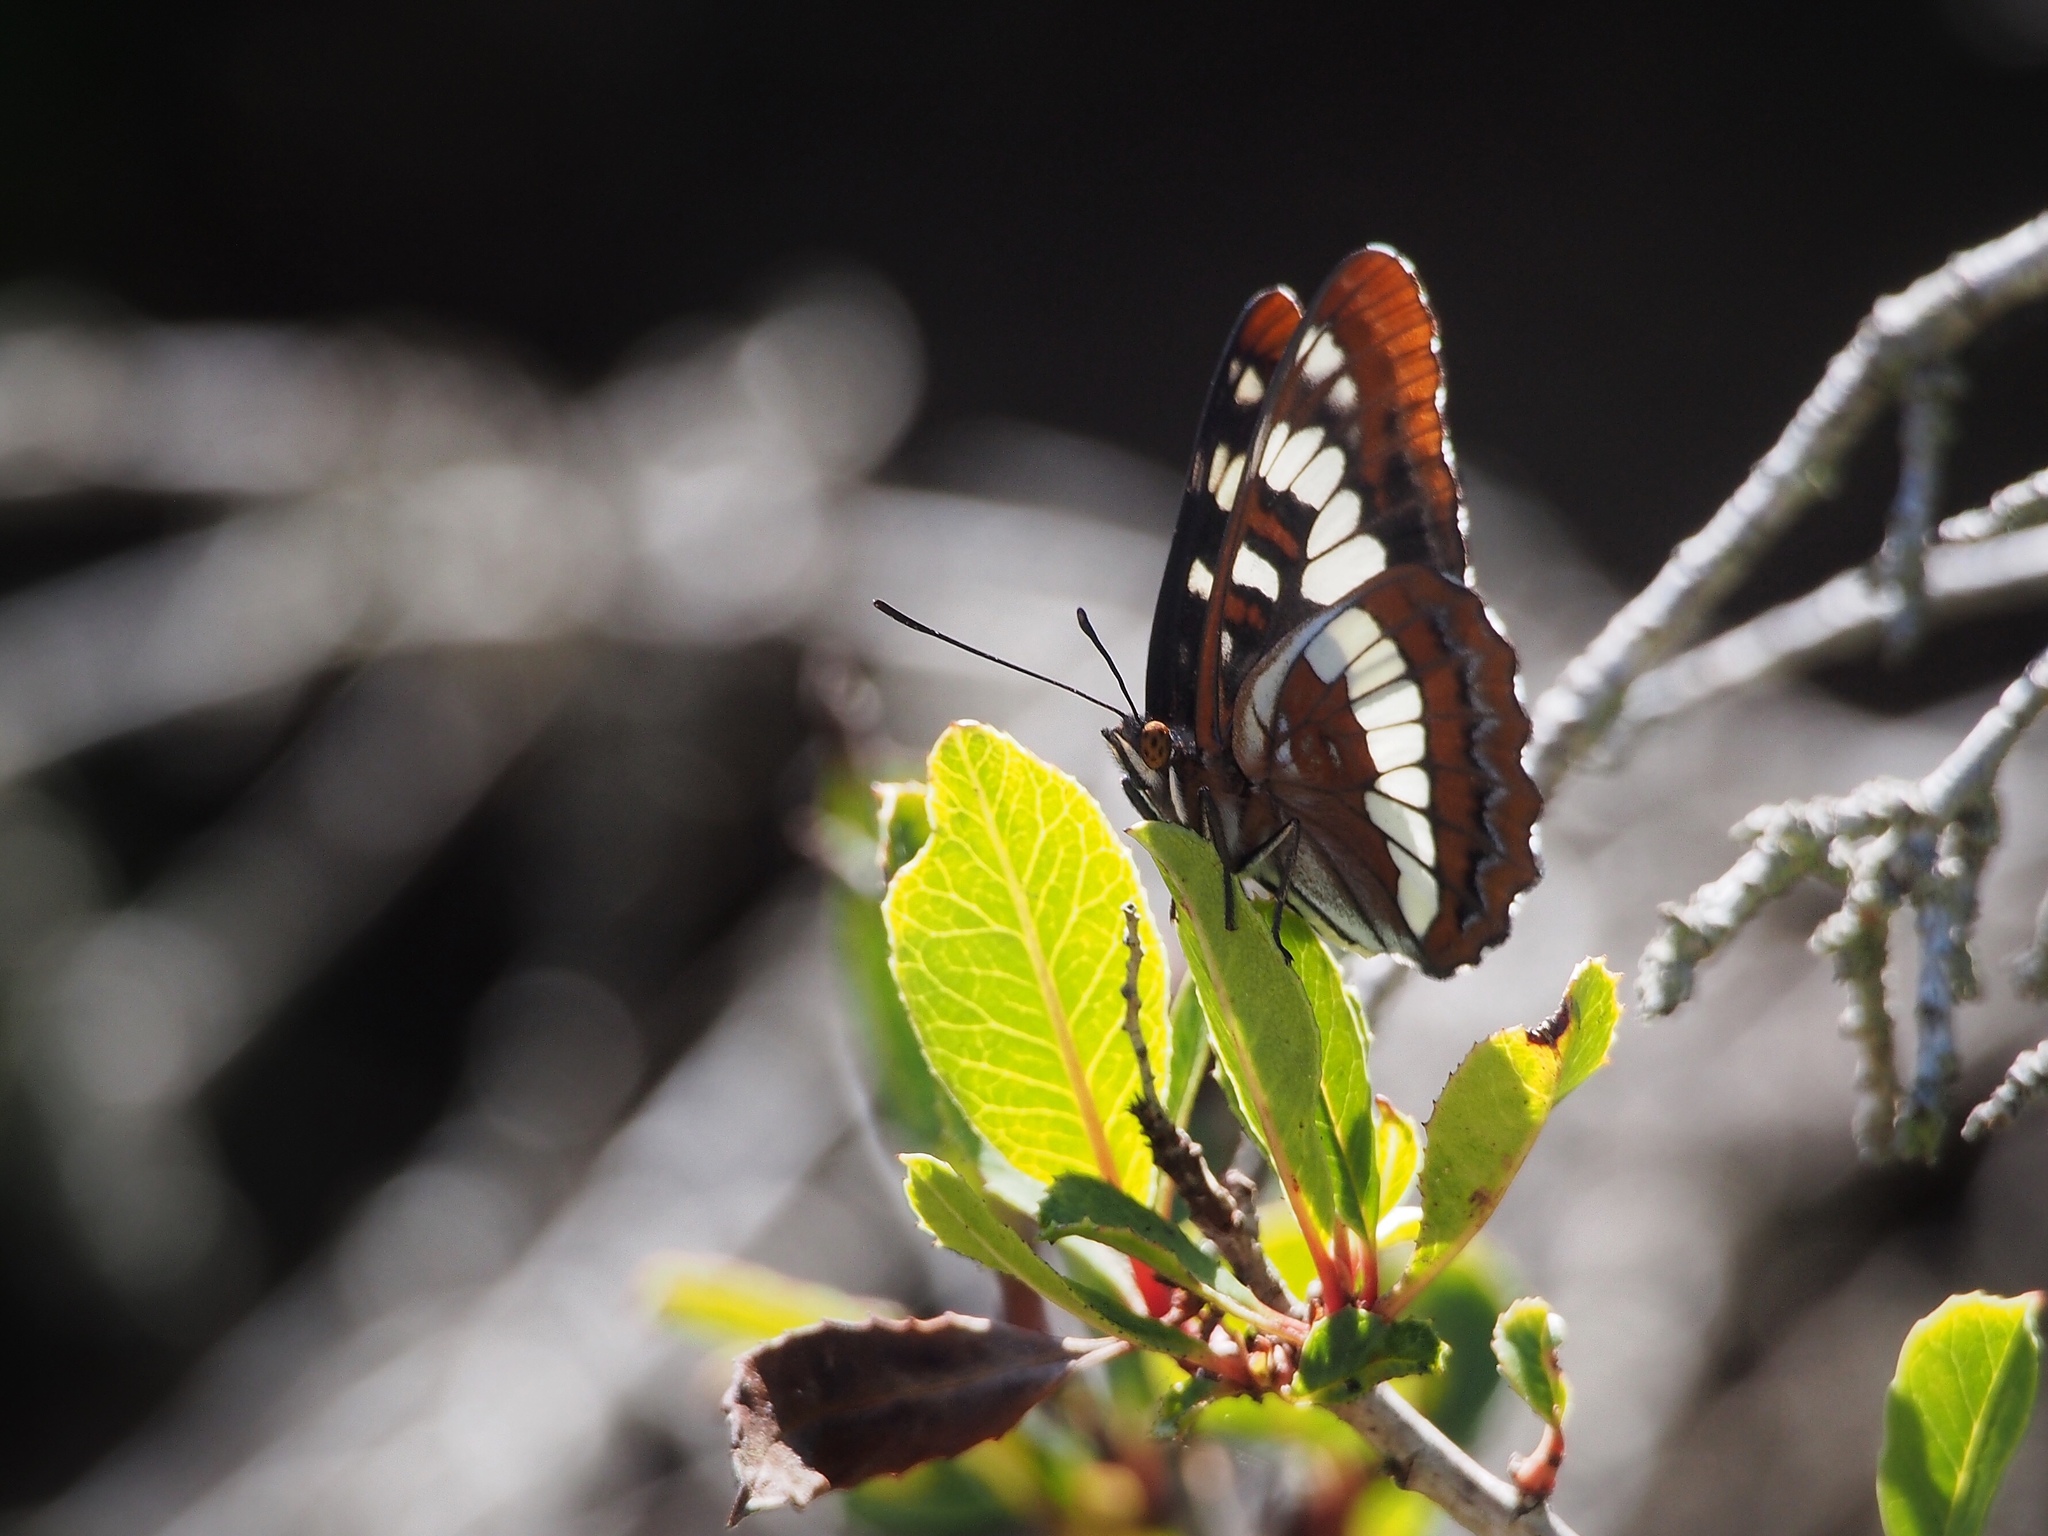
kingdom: Animalia
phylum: Arthropoda
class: Insecta
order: Lepidoptera
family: Nymphalidae
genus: Limenitis
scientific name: Limenitis lorquini
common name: Lorquin's admiral
